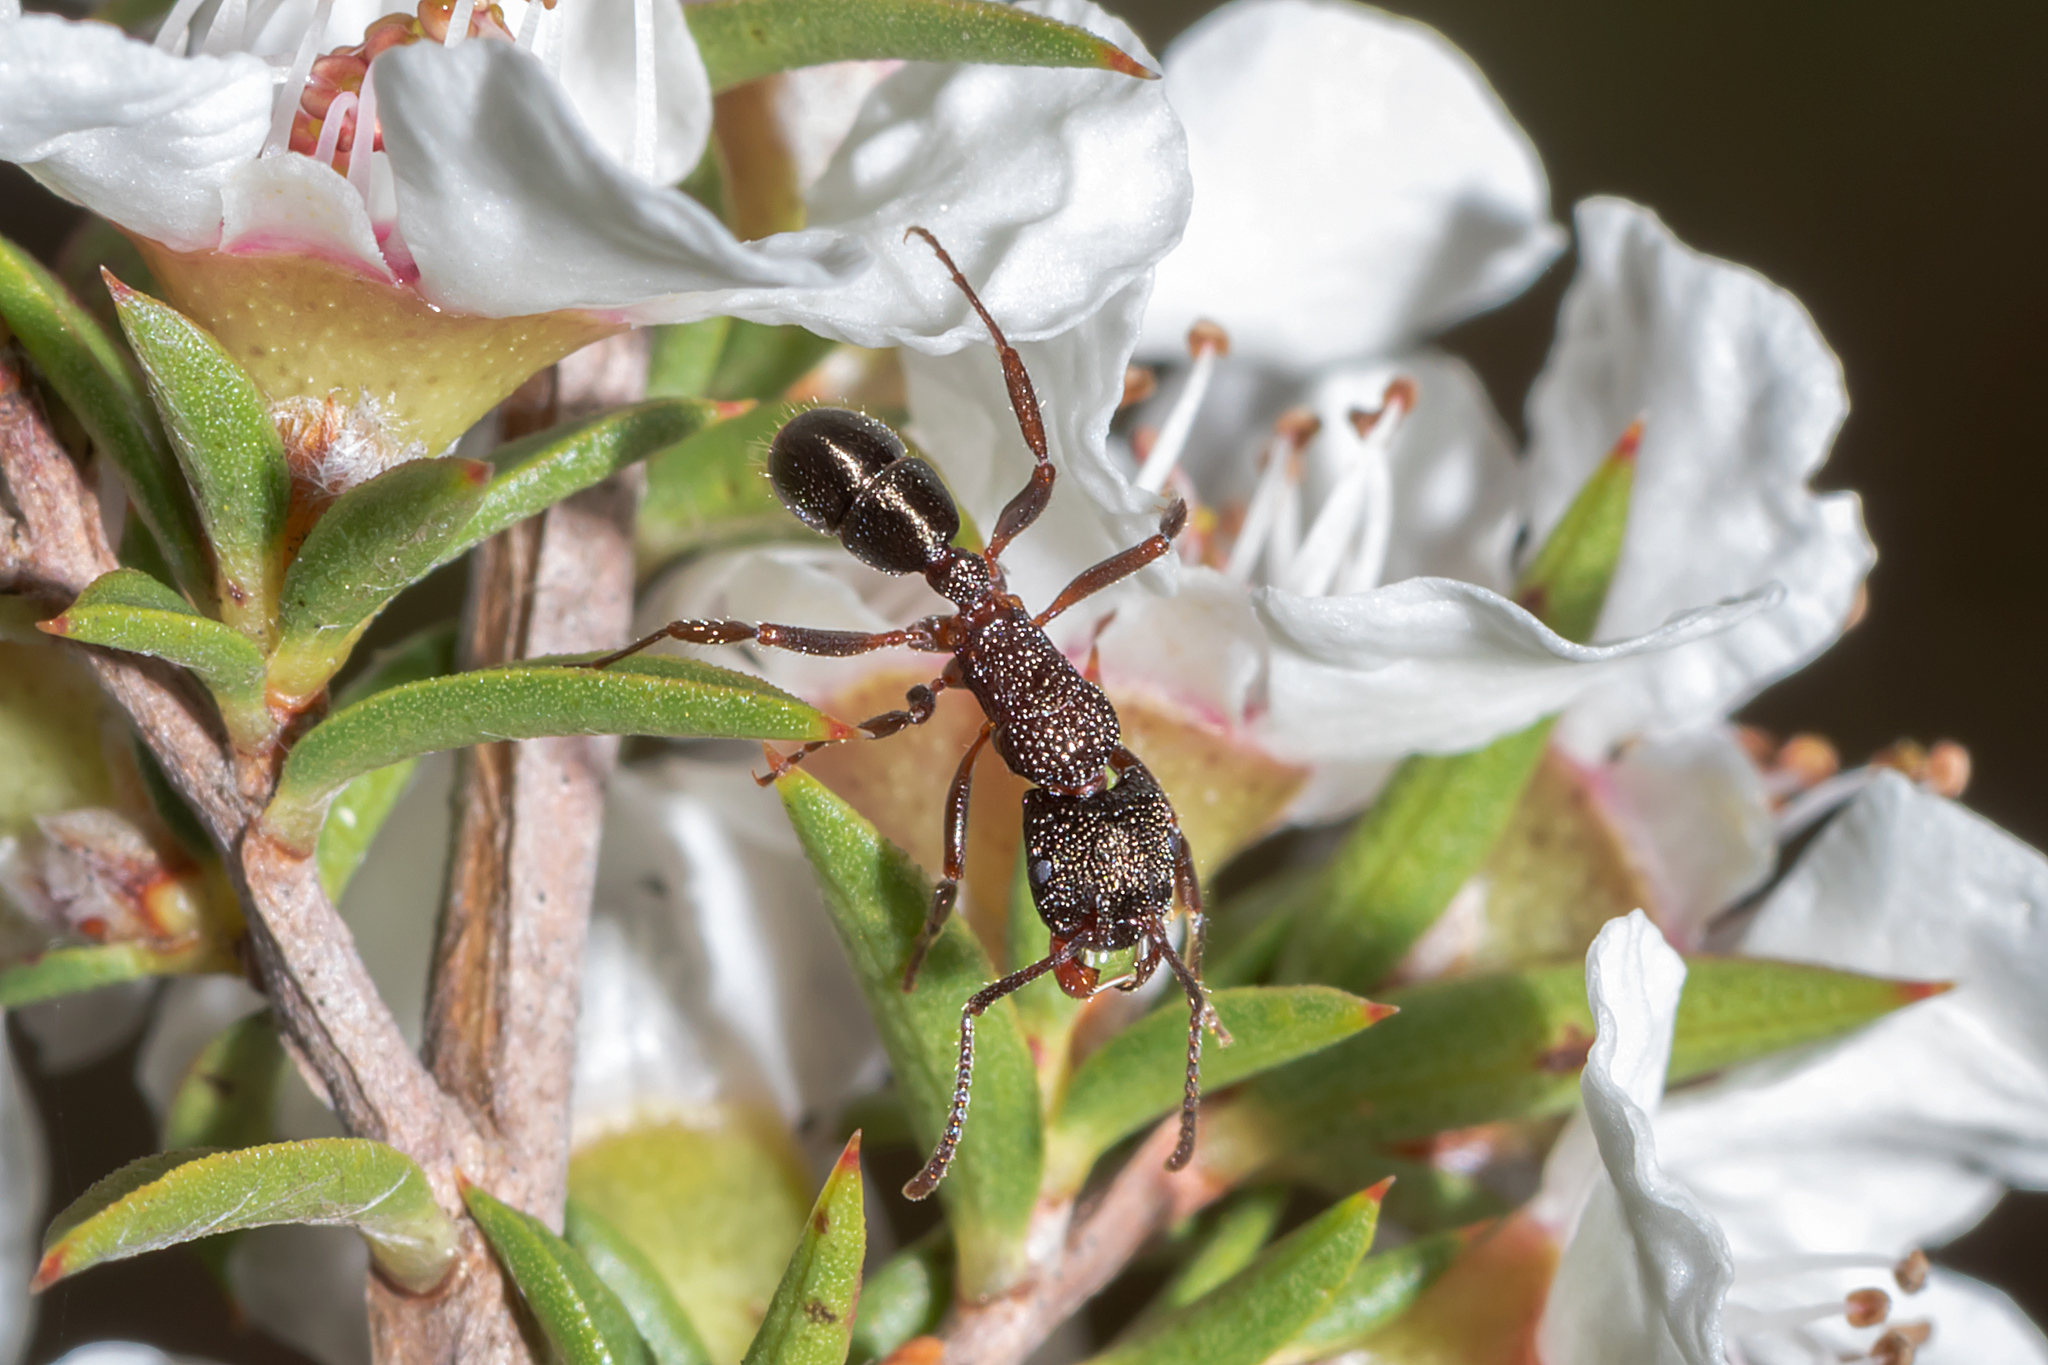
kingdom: Animalia
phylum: Arthropoda
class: Insecta
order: Hymenoptera
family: Formicidae
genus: Rhytidoponera
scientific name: Rhytidoponera tasmaniensis
